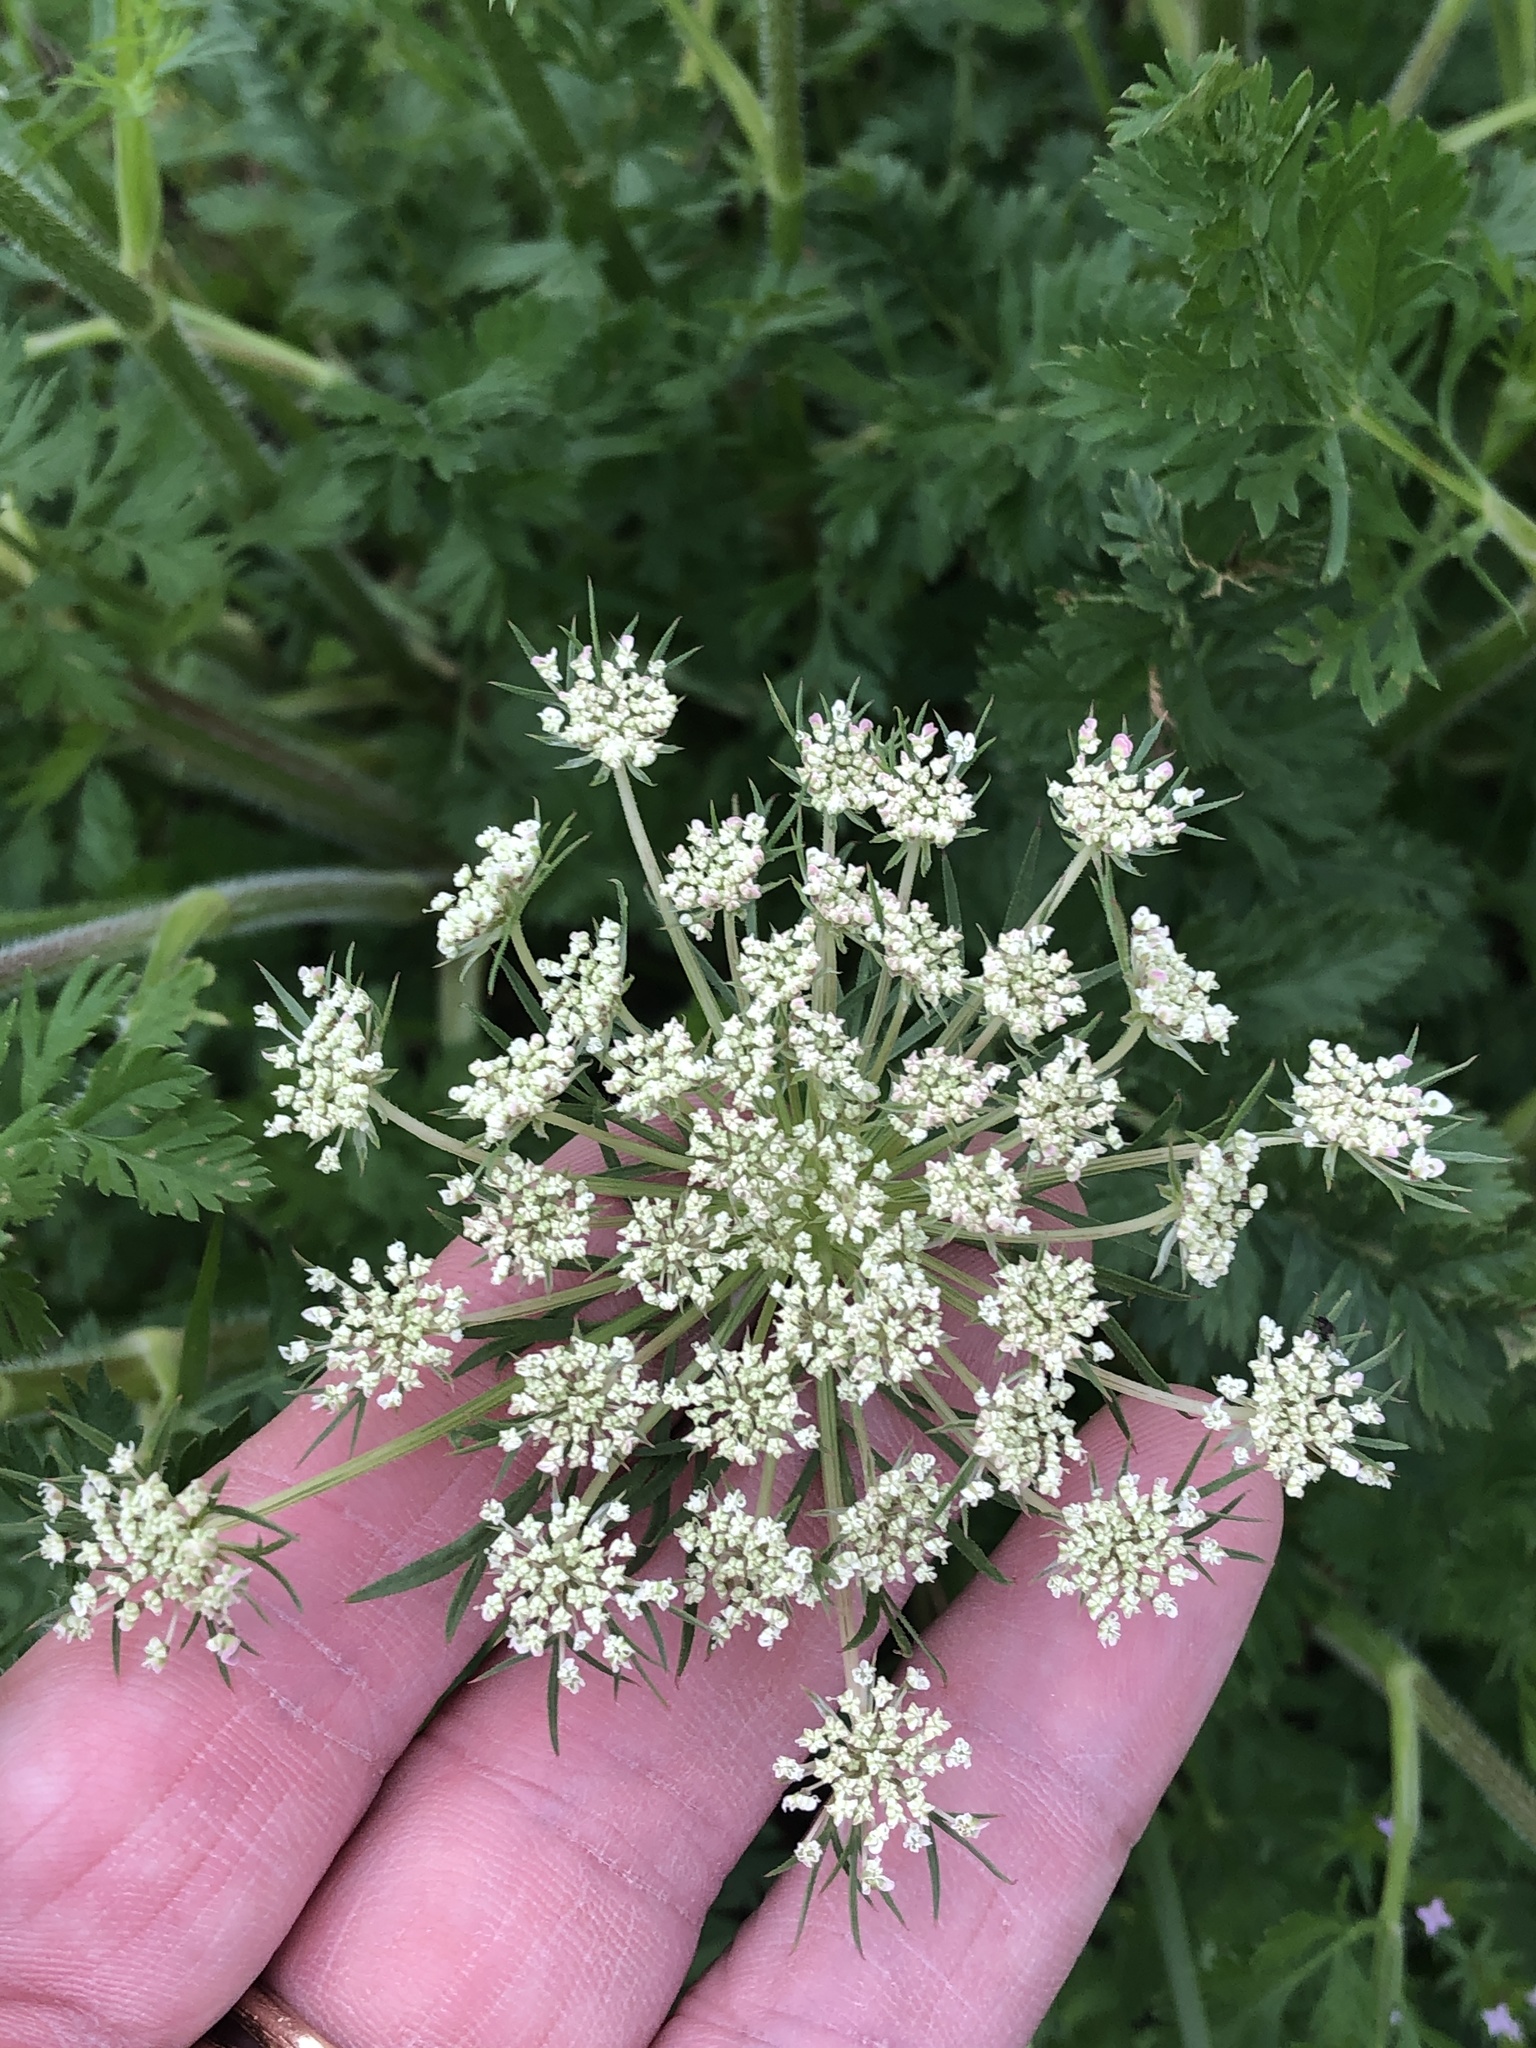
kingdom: Plantae
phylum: Tracheophyta
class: Magnoliopsida
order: Apiales
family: Apiaceae
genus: Daucus
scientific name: Daucus carota
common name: Wild carrot
